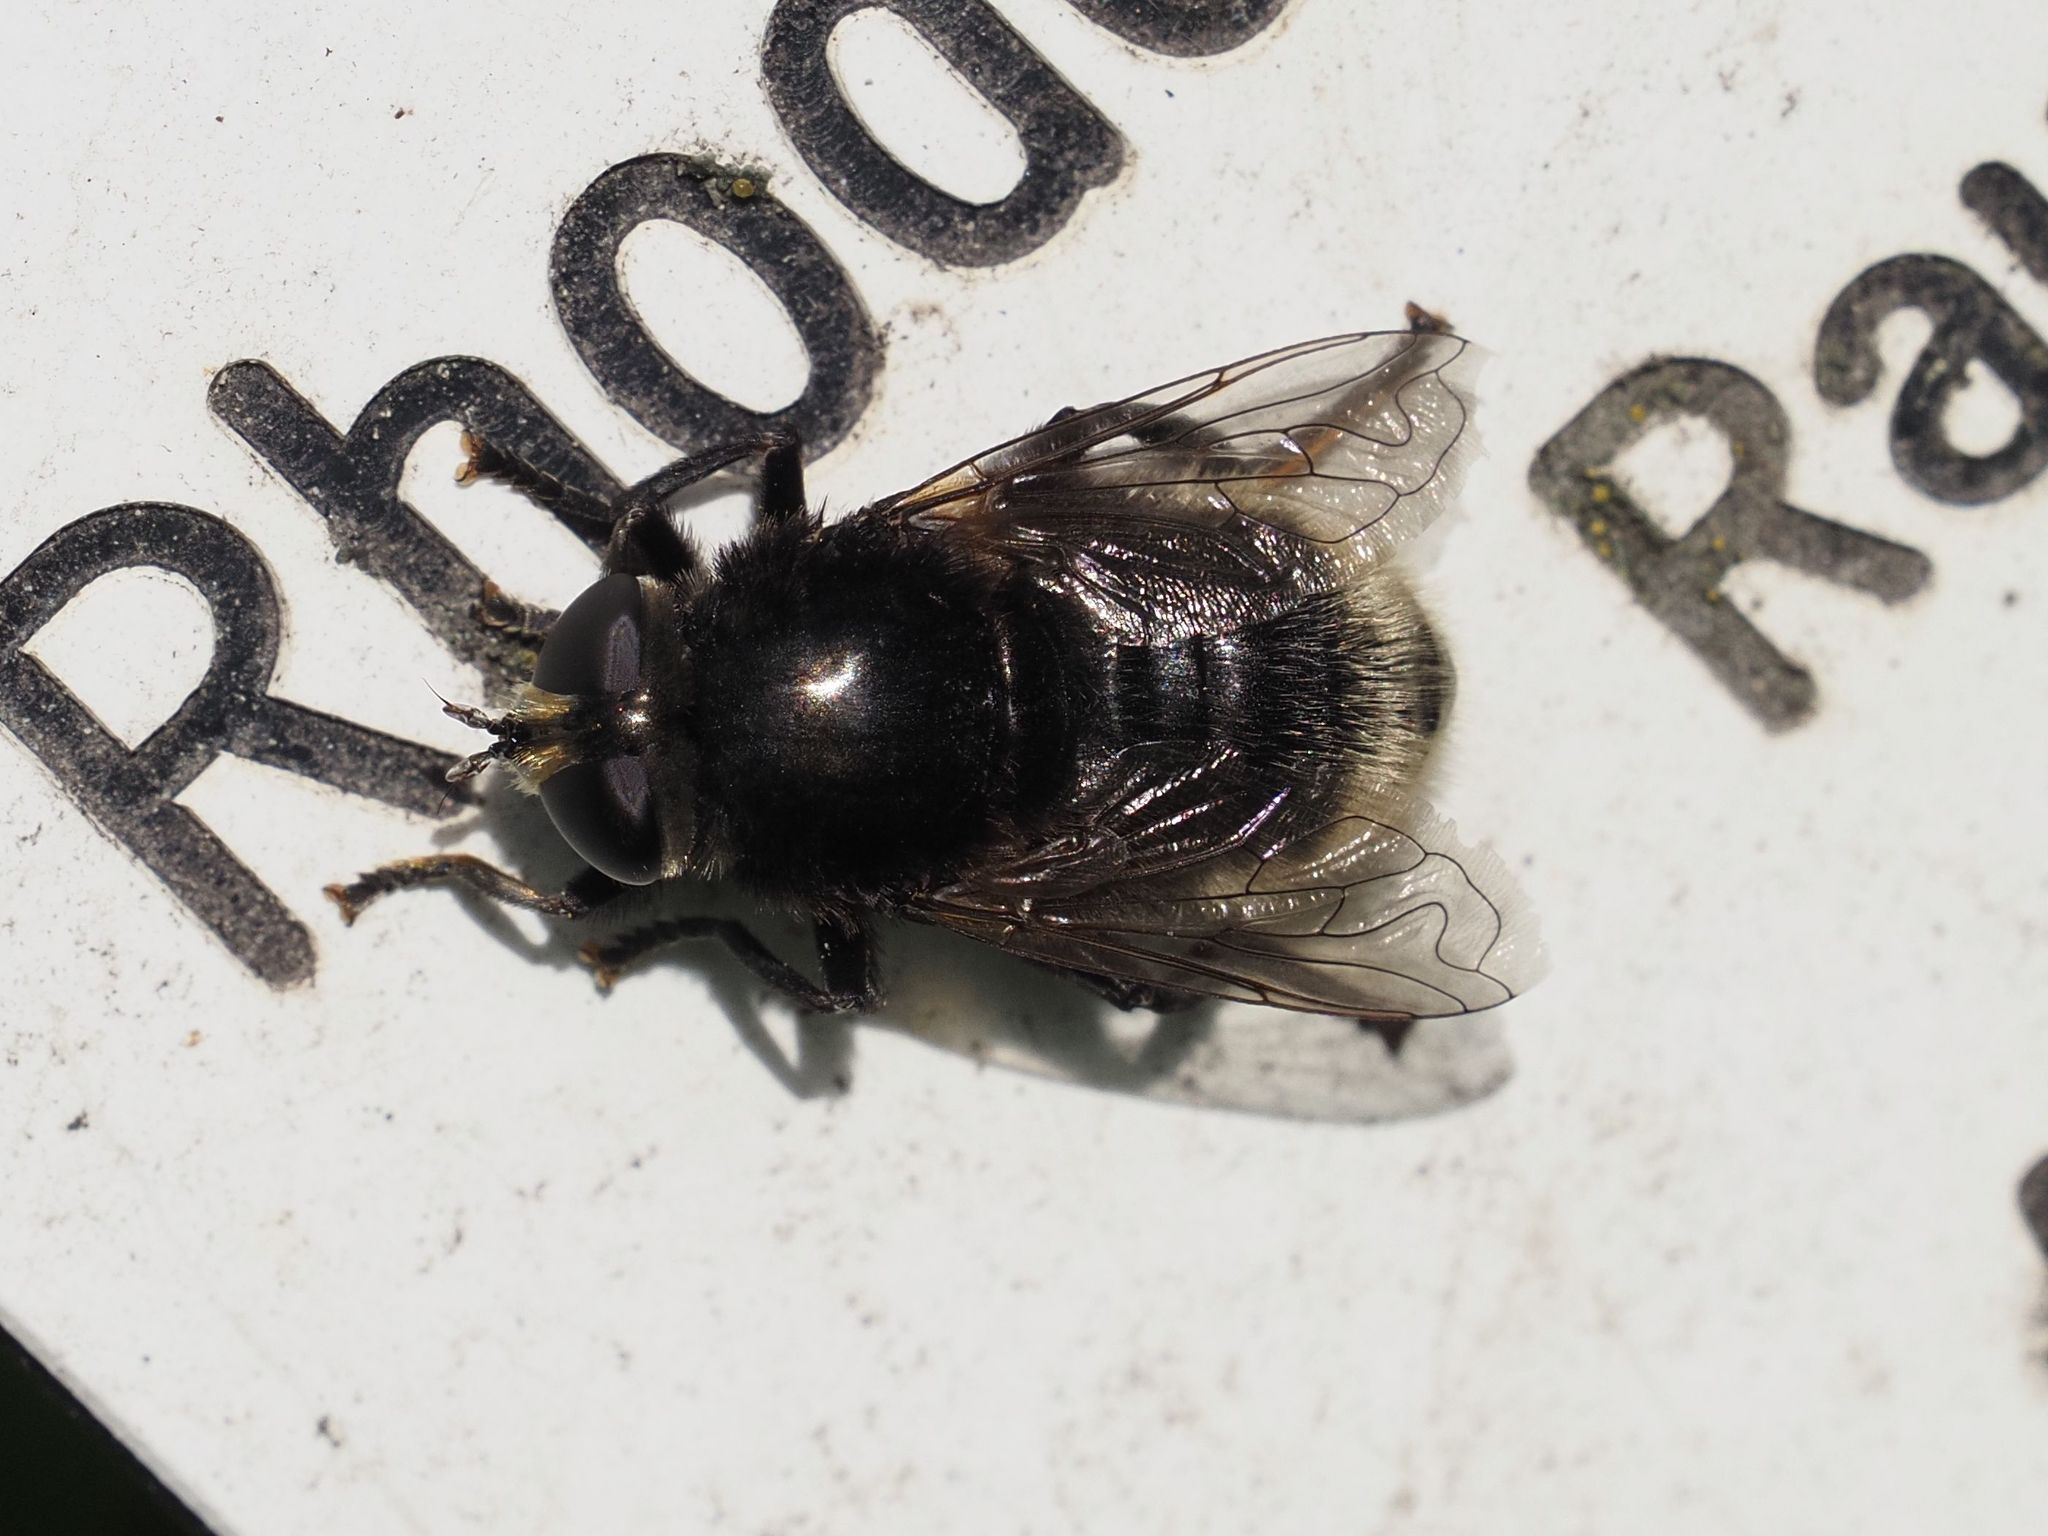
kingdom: Animalia
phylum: Arthropoda
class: Insecta
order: Diptera
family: Syrphidae
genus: Merodon
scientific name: Merodon equestris
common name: Greater bulb-fly
